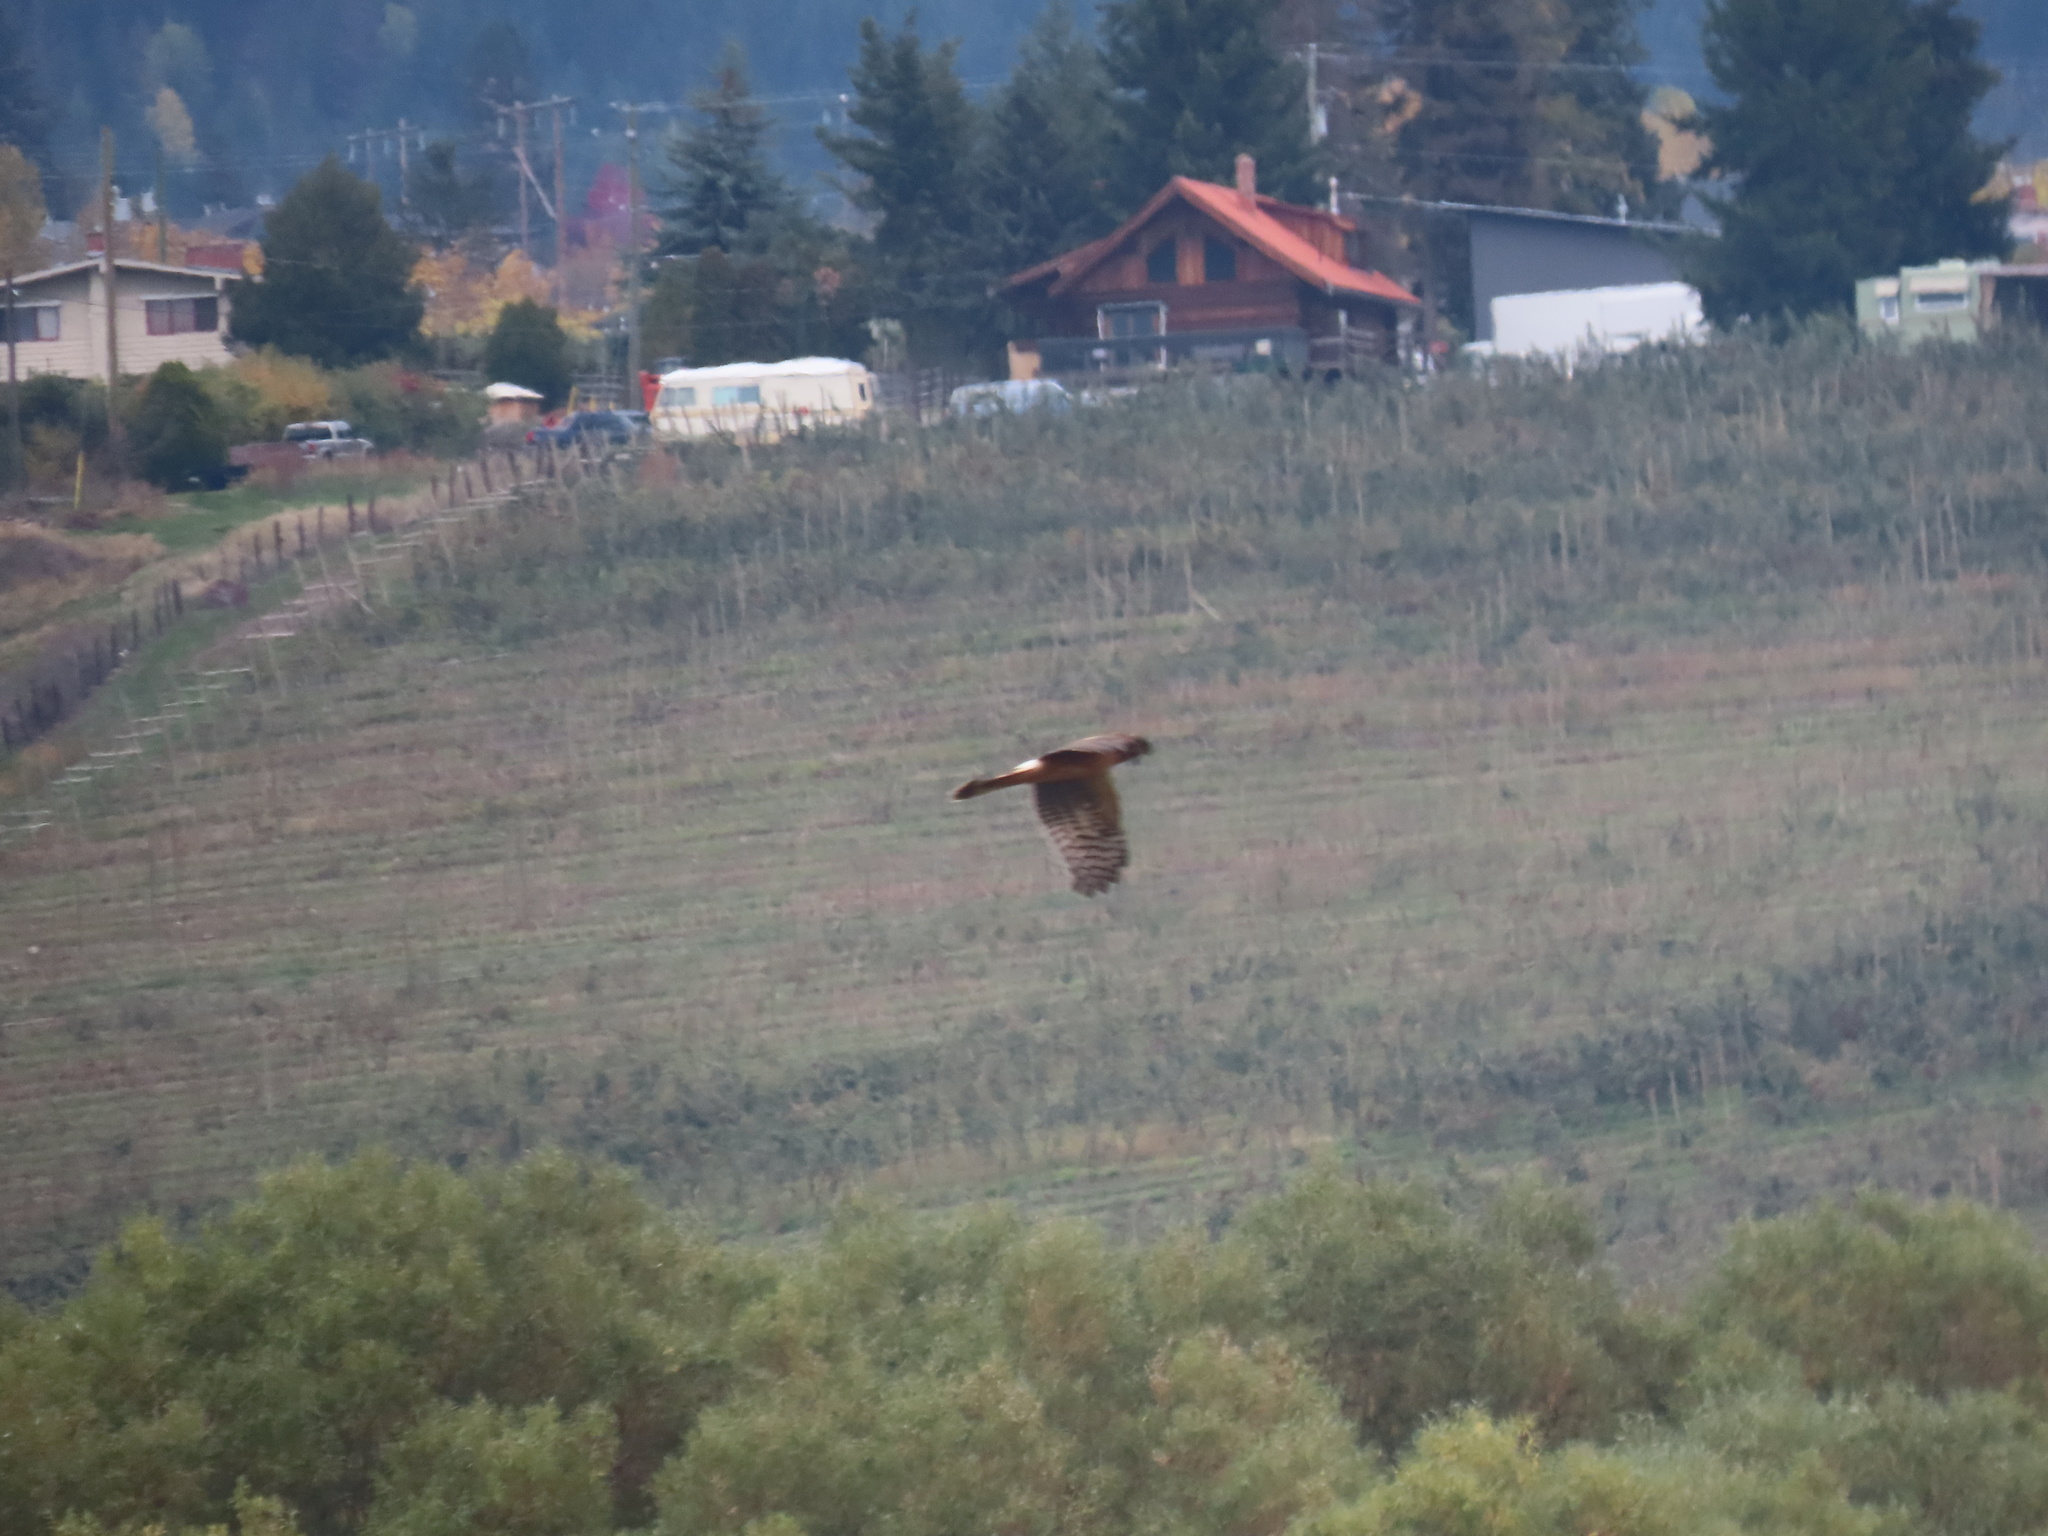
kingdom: Animalia
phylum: Chordata
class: Aves
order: Accipitriformes
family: Accipitridae
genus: Circus
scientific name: Circus cyaneus
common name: Hen harrier
